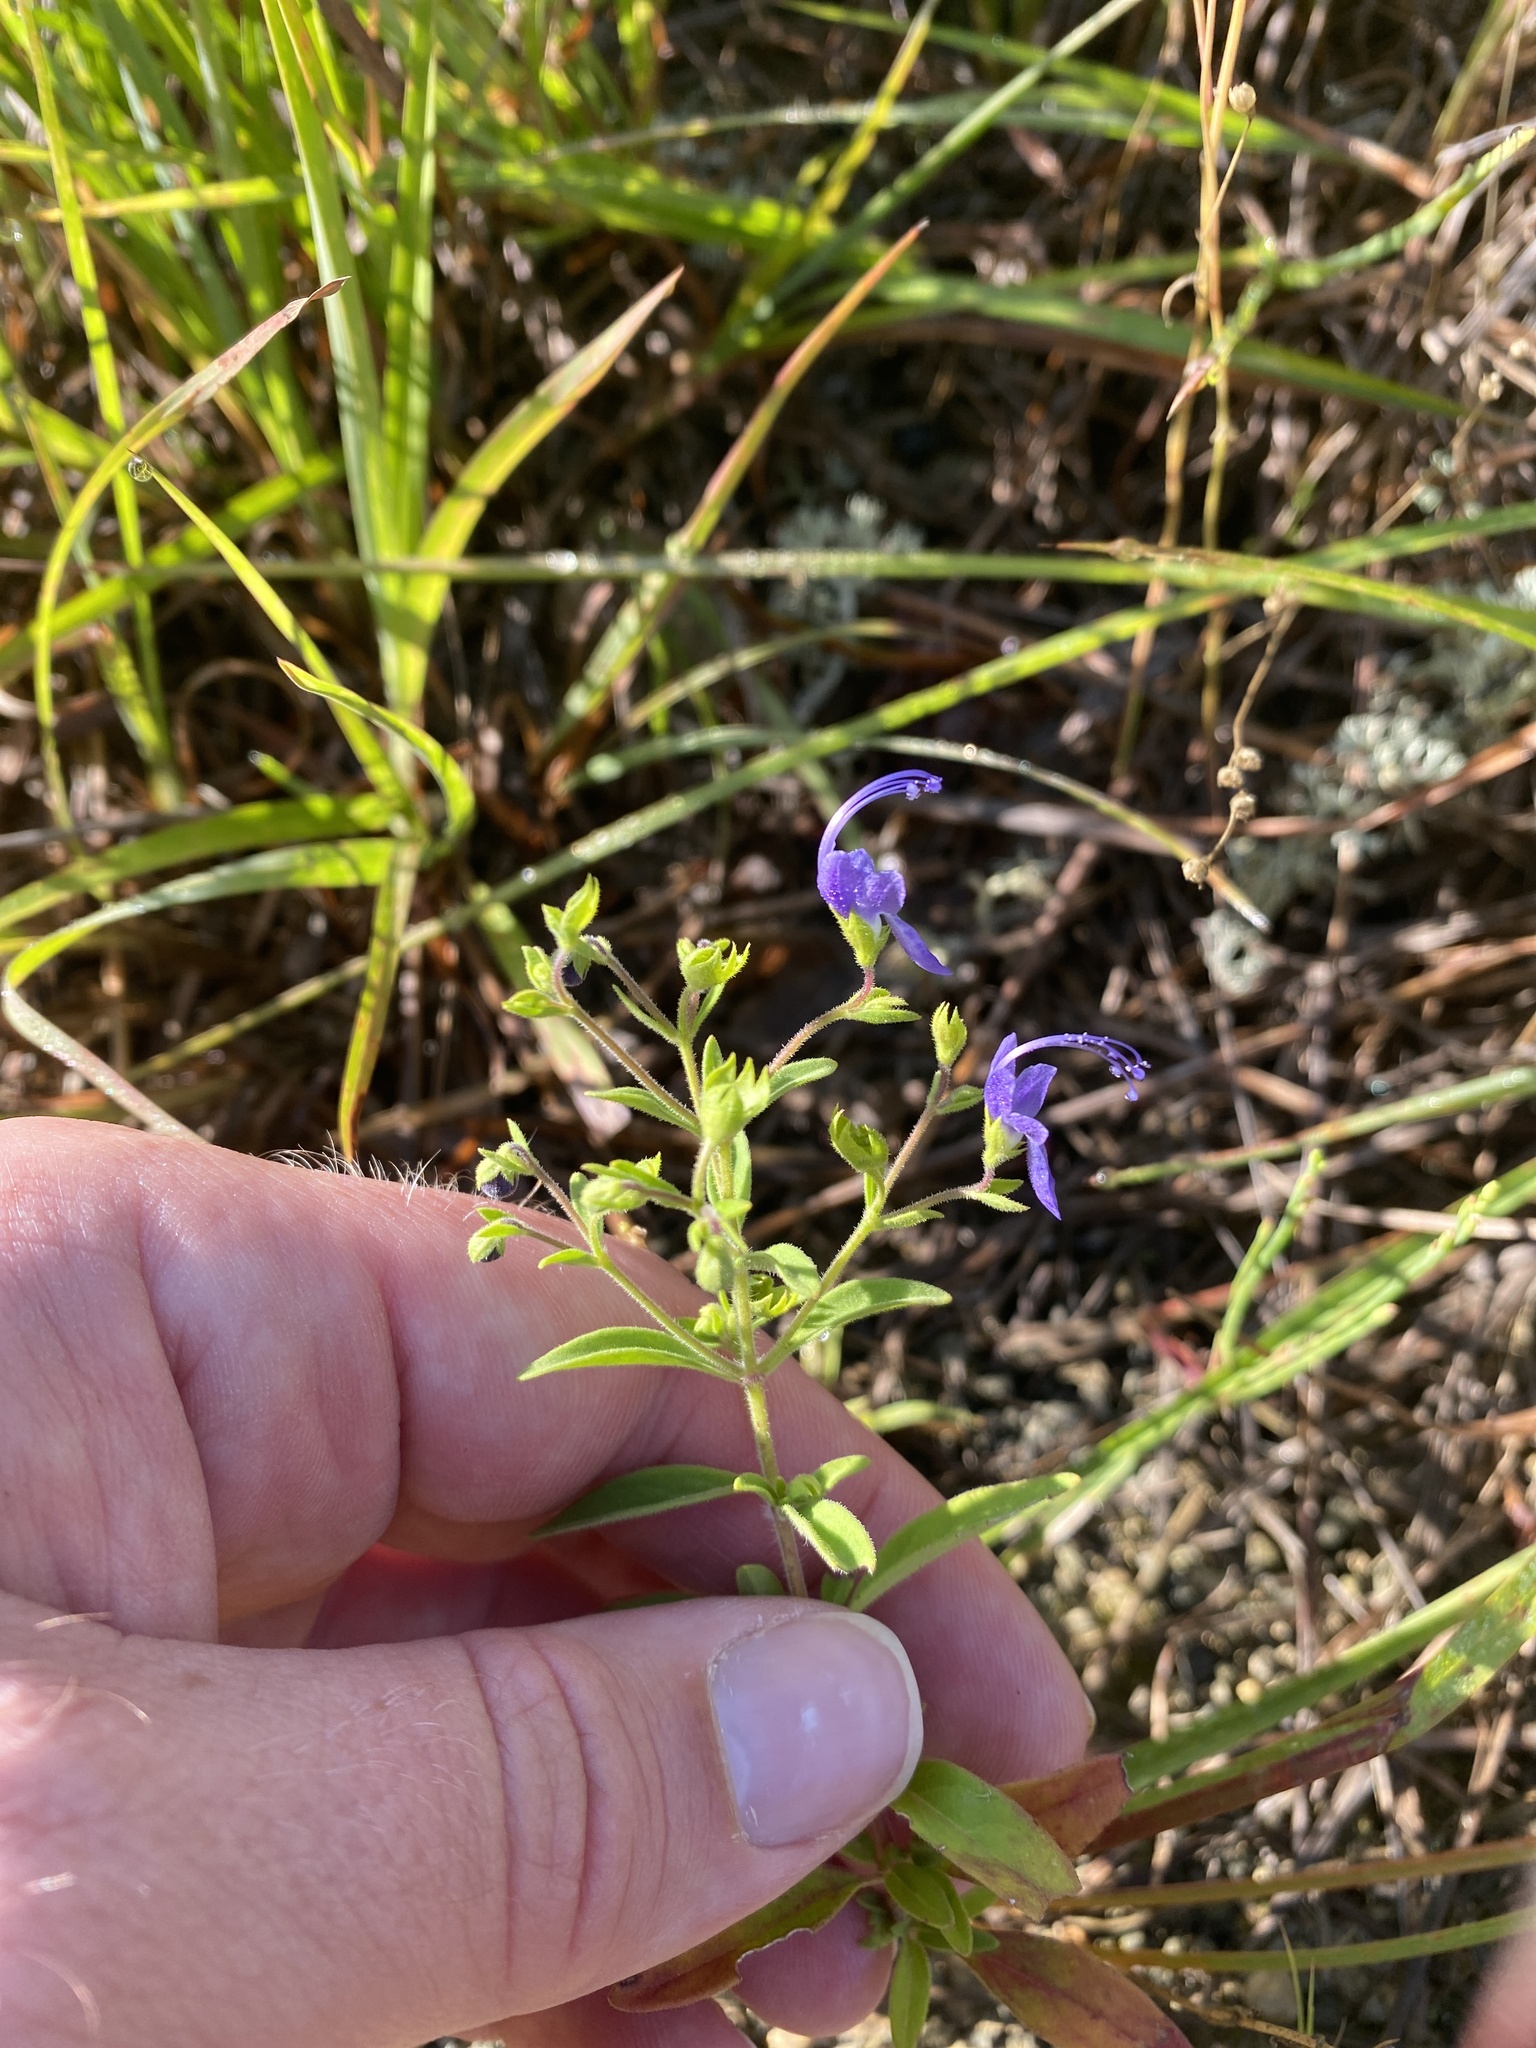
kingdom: Plantae
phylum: Tracheophyta
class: Magnoliopsida
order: Lamiales
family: Lamiaceae
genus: Trichostema
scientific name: Trichostema dichotomum
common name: Bastard pennyroyal
